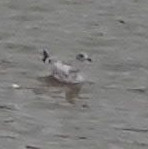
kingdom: Animalia
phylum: Chordata
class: Aves
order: Charadriiformes
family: Laridae
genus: Larus
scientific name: Larus delawarensis
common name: Ring-billed gull
